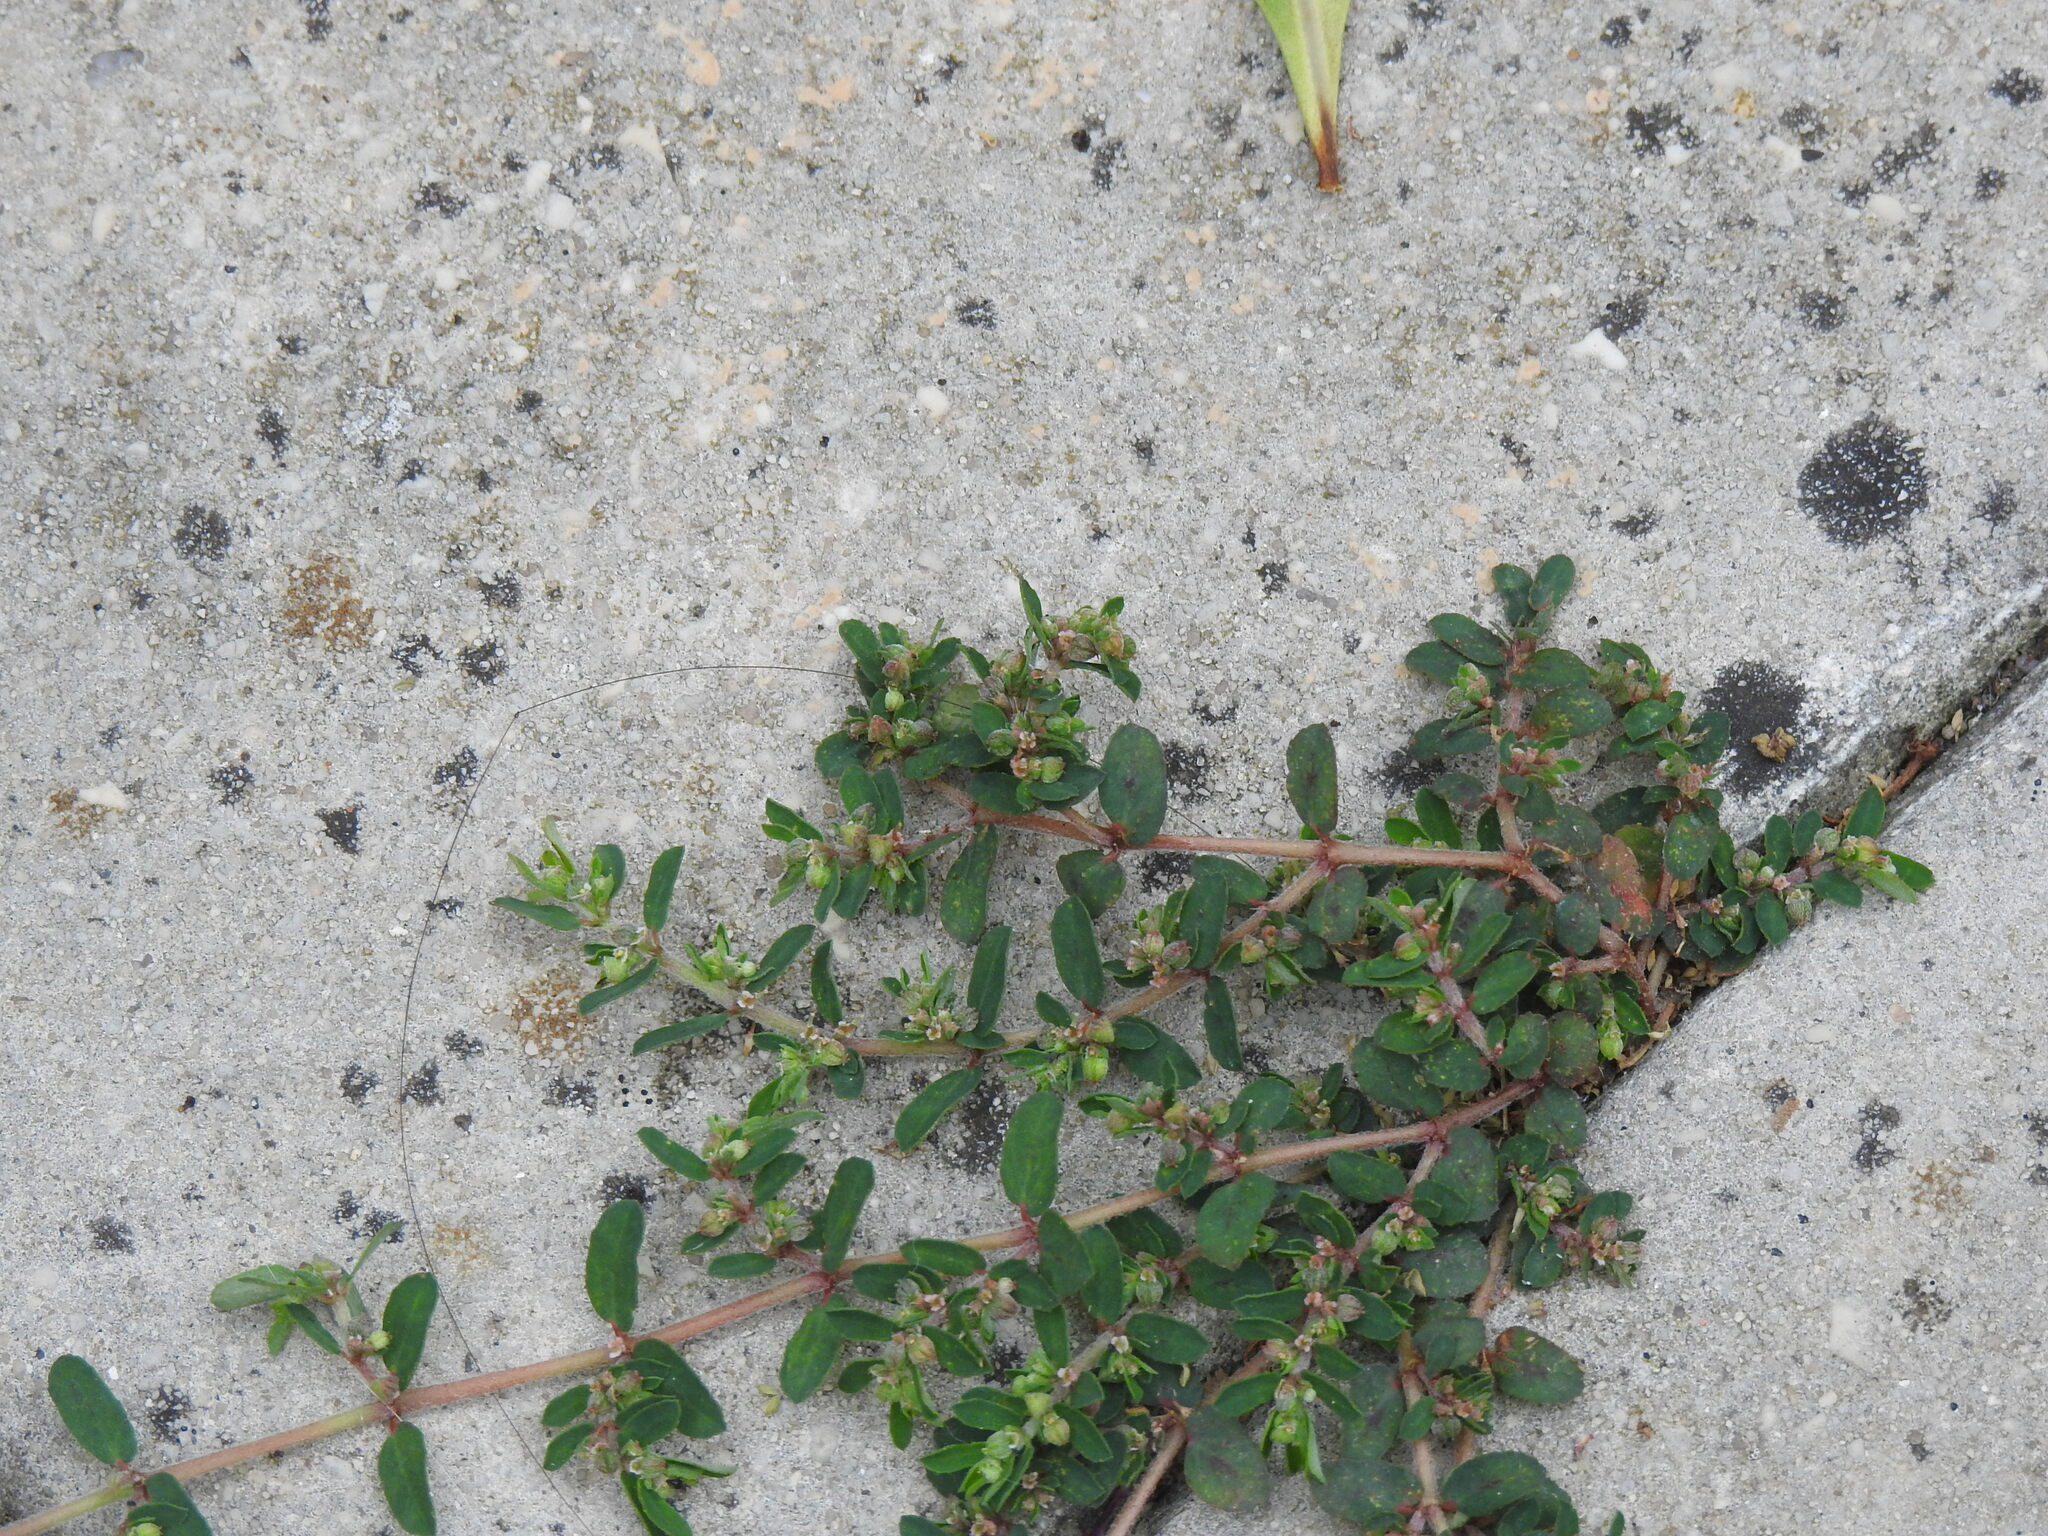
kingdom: Plantae
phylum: Tracheophyta
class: Magnoliopsida
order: Malpighiales
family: Euphorbiaceae
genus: Euphorbia
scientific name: Euphorbia maculata
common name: Spotted spurge
